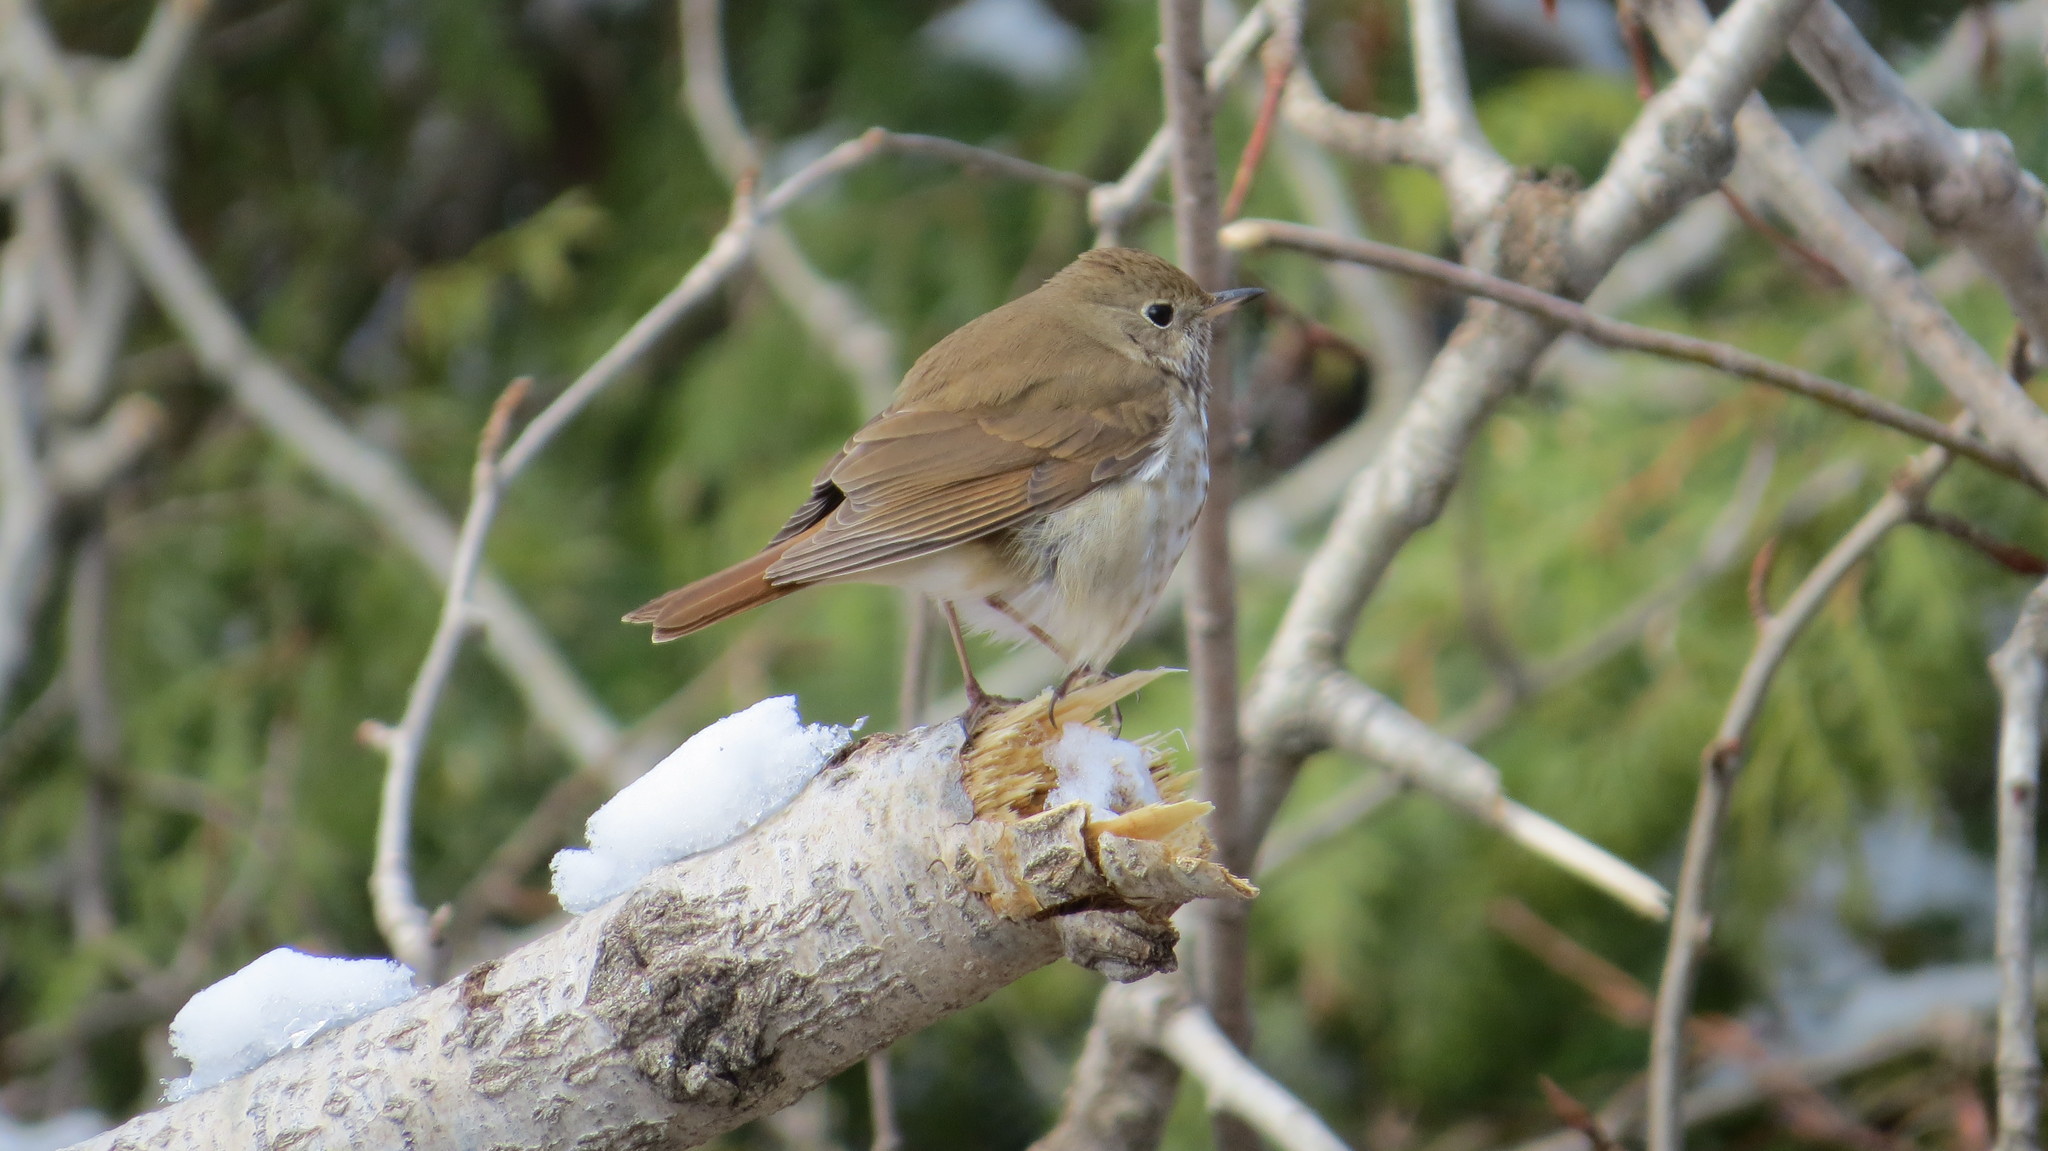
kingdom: Animalia
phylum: Chordata
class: Aves
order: Passeriformes
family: Turdidae
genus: Catharus
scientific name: Catharus guttatus
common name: Hermit thrush
